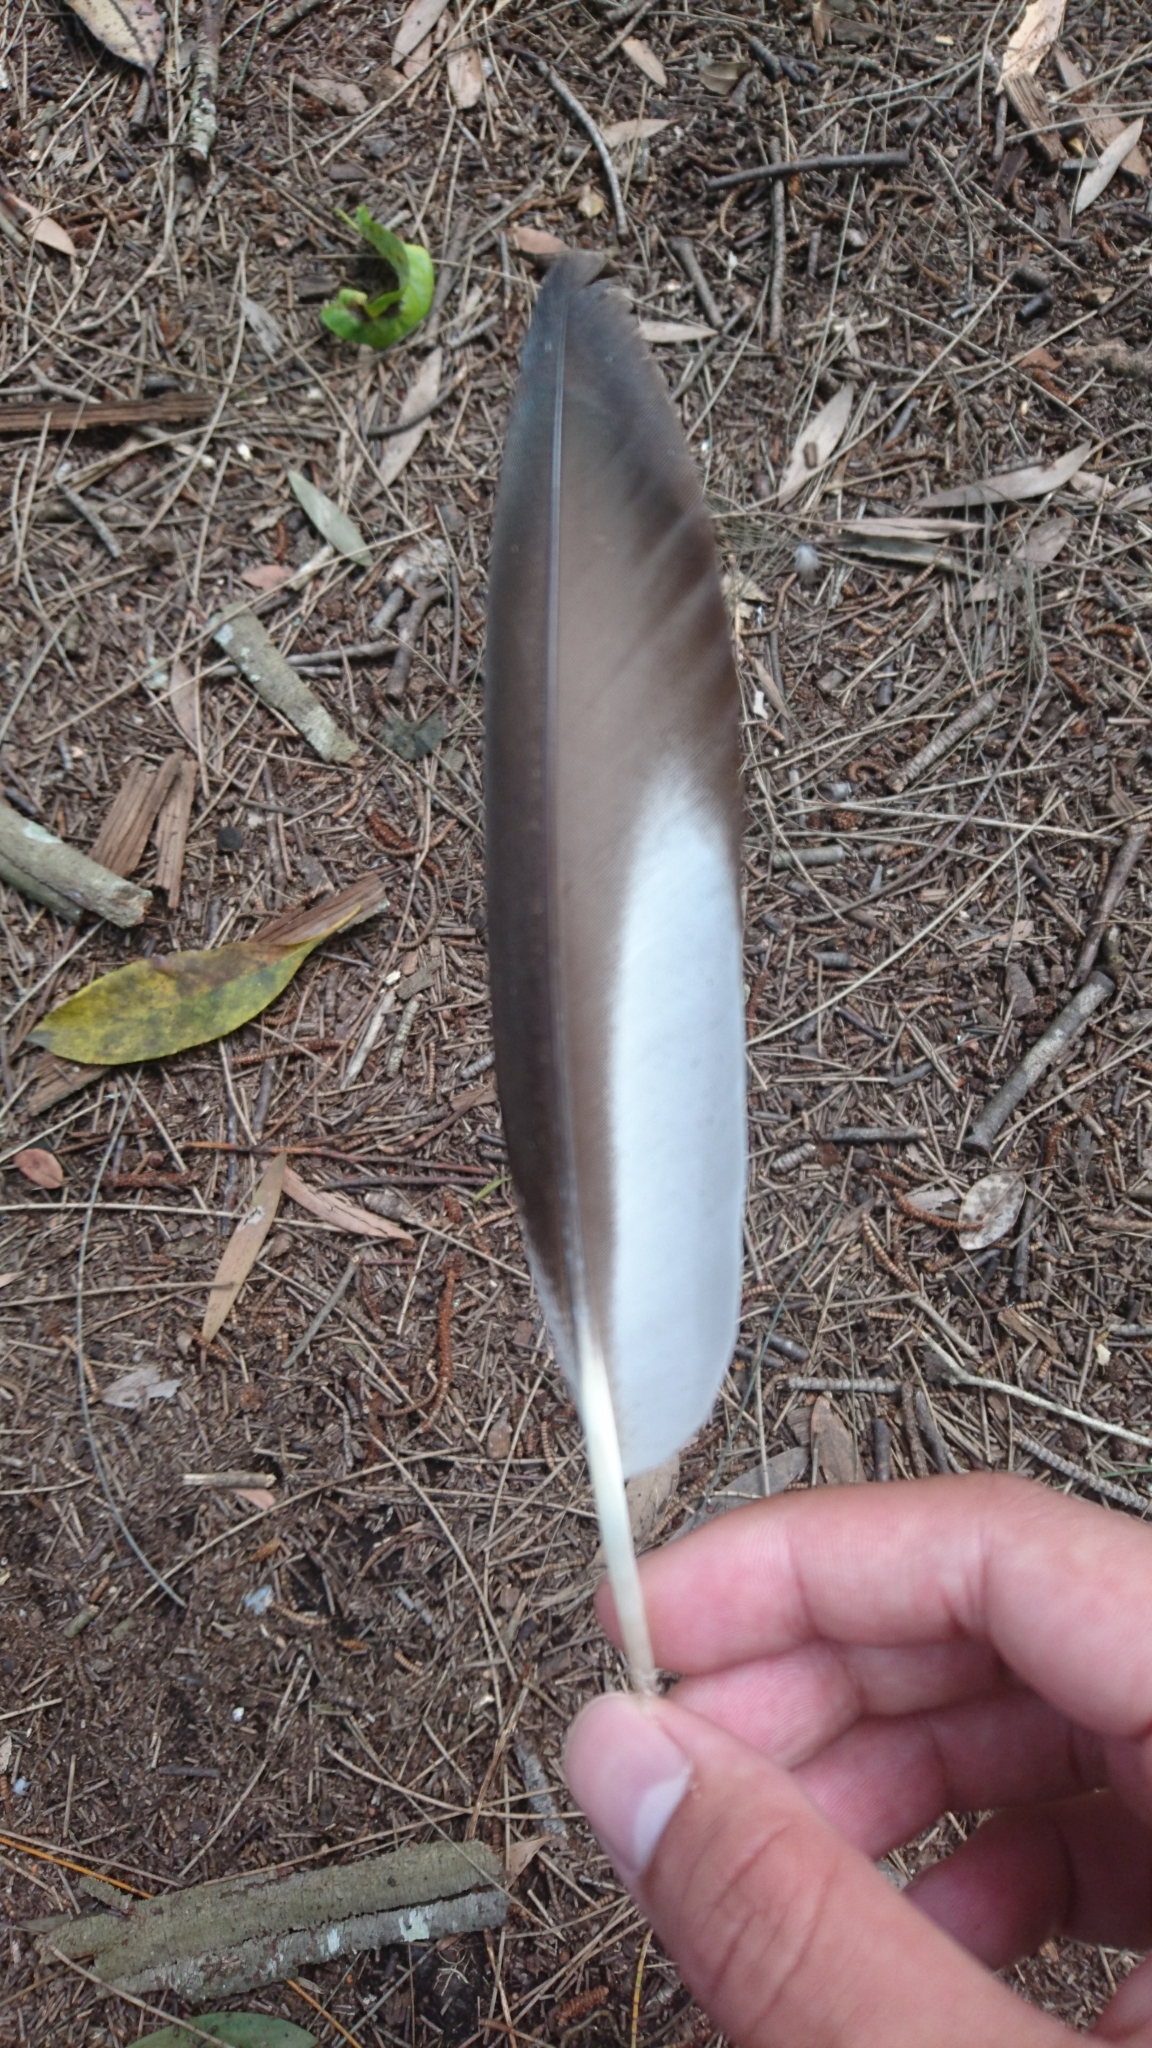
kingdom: Animalia
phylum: Chordata
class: Aves
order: Anseriformes
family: Anatidae
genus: Chenonetta
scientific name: Chenonetta jubata
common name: Maned duck
